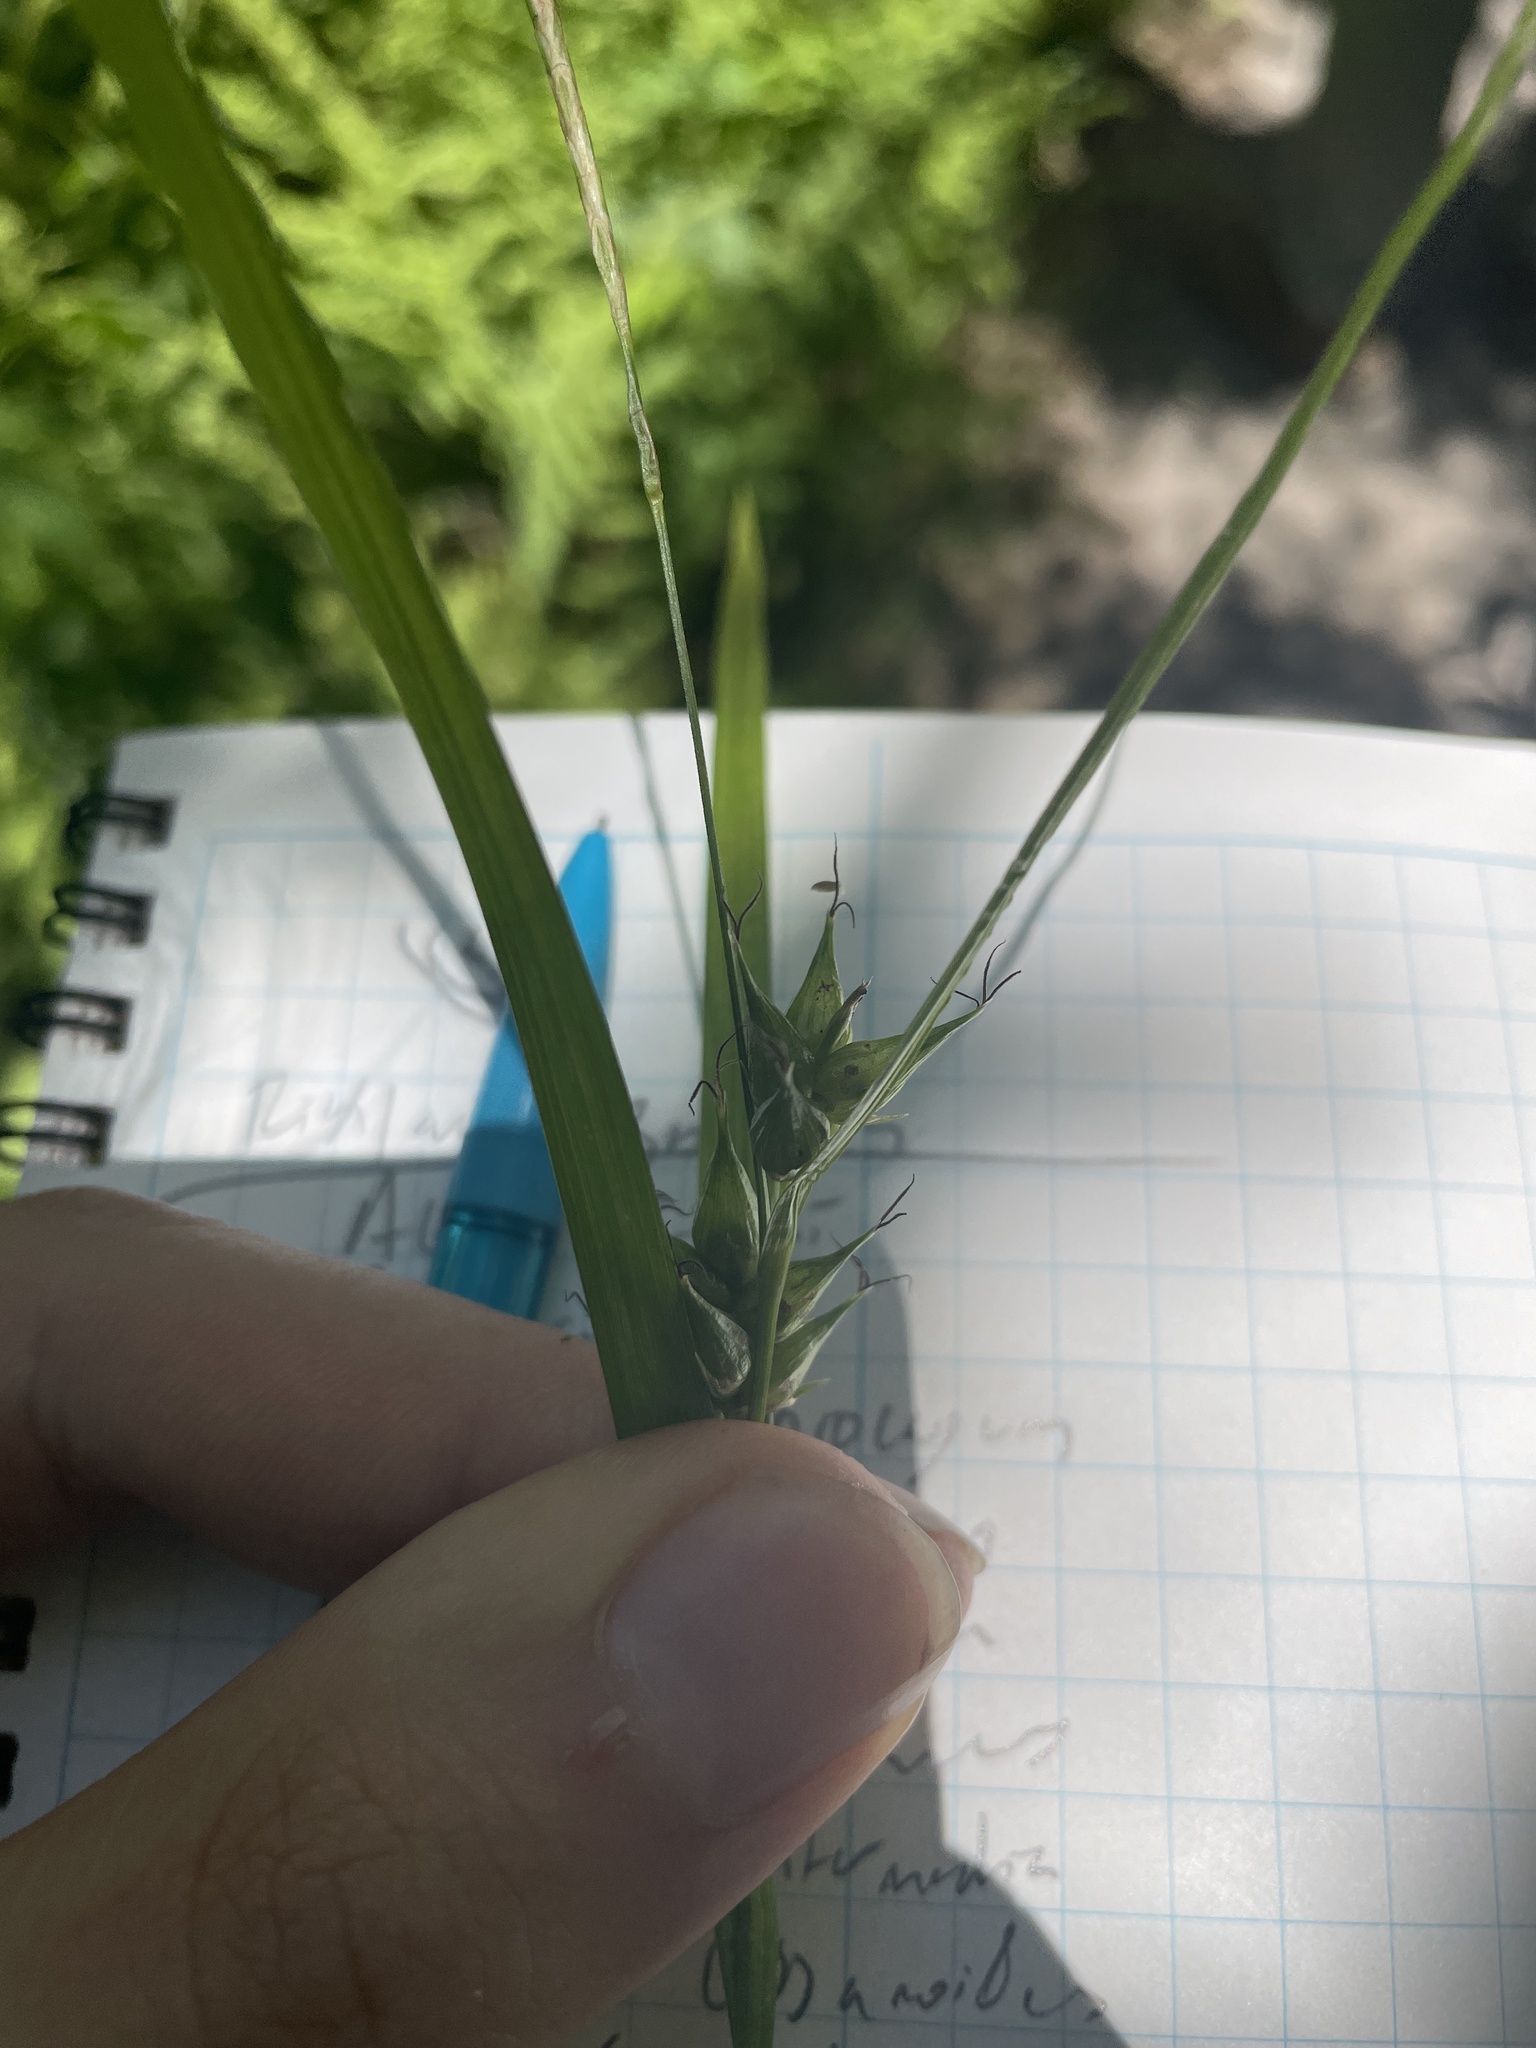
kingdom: Plantae
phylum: Tracheophyta
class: Liliopsida
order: Poales
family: Cyperaceae
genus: Carex
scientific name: Carex intumescens
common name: Greater bladder sedge
